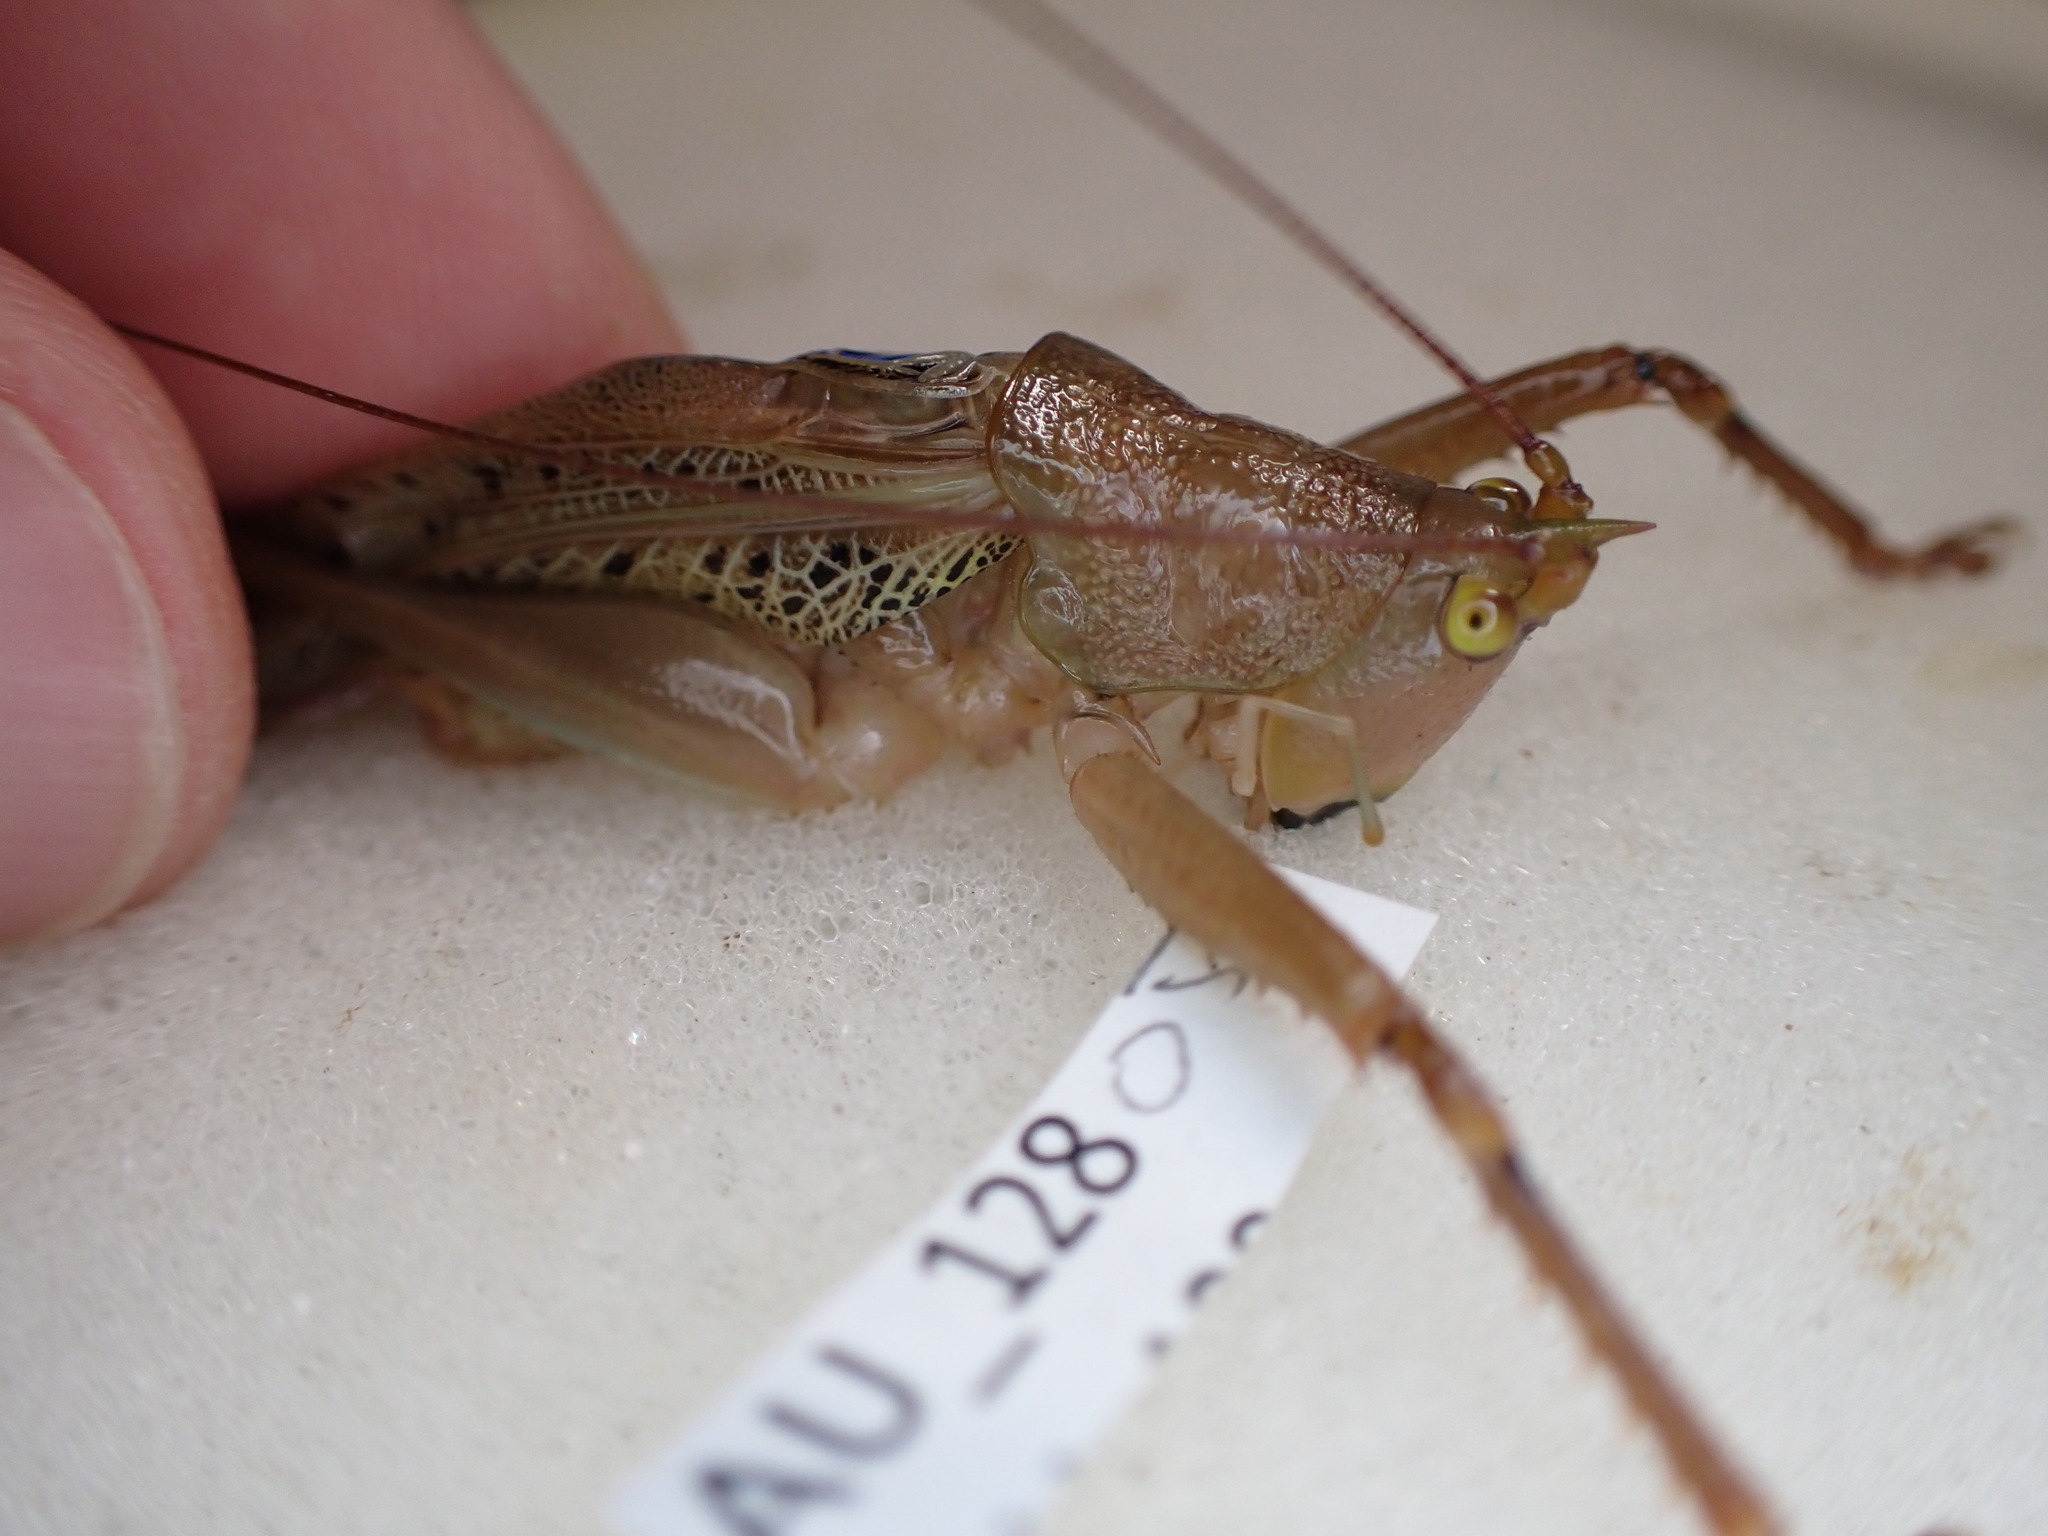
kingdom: Animalia
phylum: Arthropoda
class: Insecta
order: Orthoptera
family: Tettigoniidae
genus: Barbaragraecia
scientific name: Barbaragraecia richardsoni
